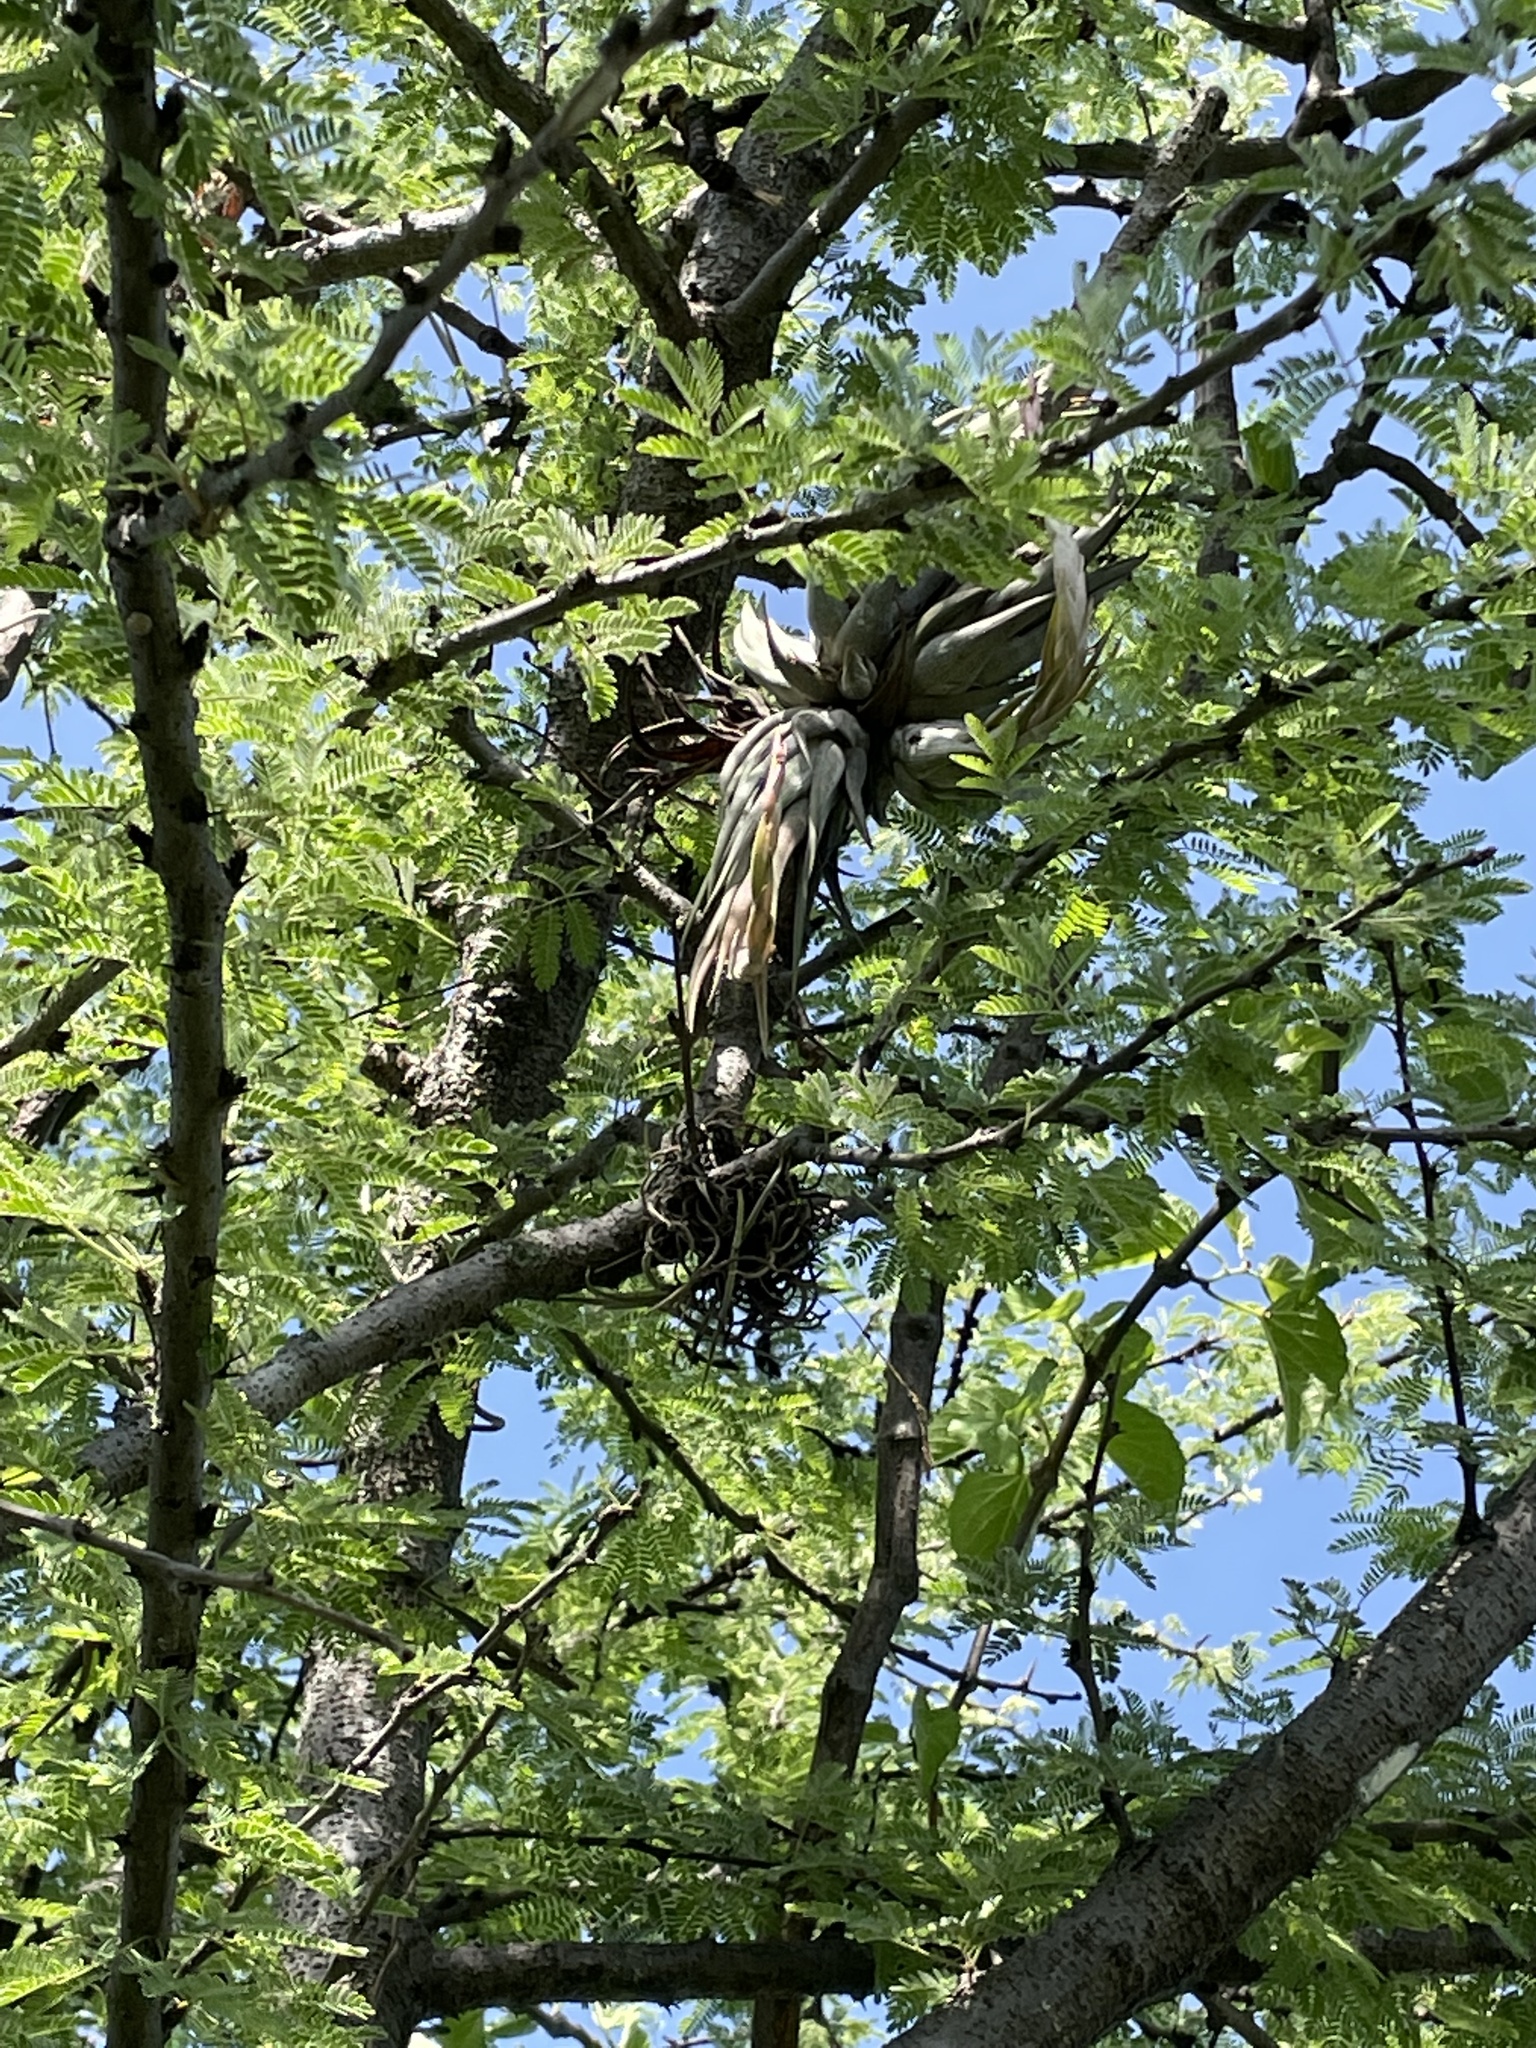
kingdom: Plantae
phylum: Tracheophyta
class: Liliopsida
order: Poales
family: Bromeliaceae
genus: Tillandsia
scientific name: Tillandsia circinnatioides
